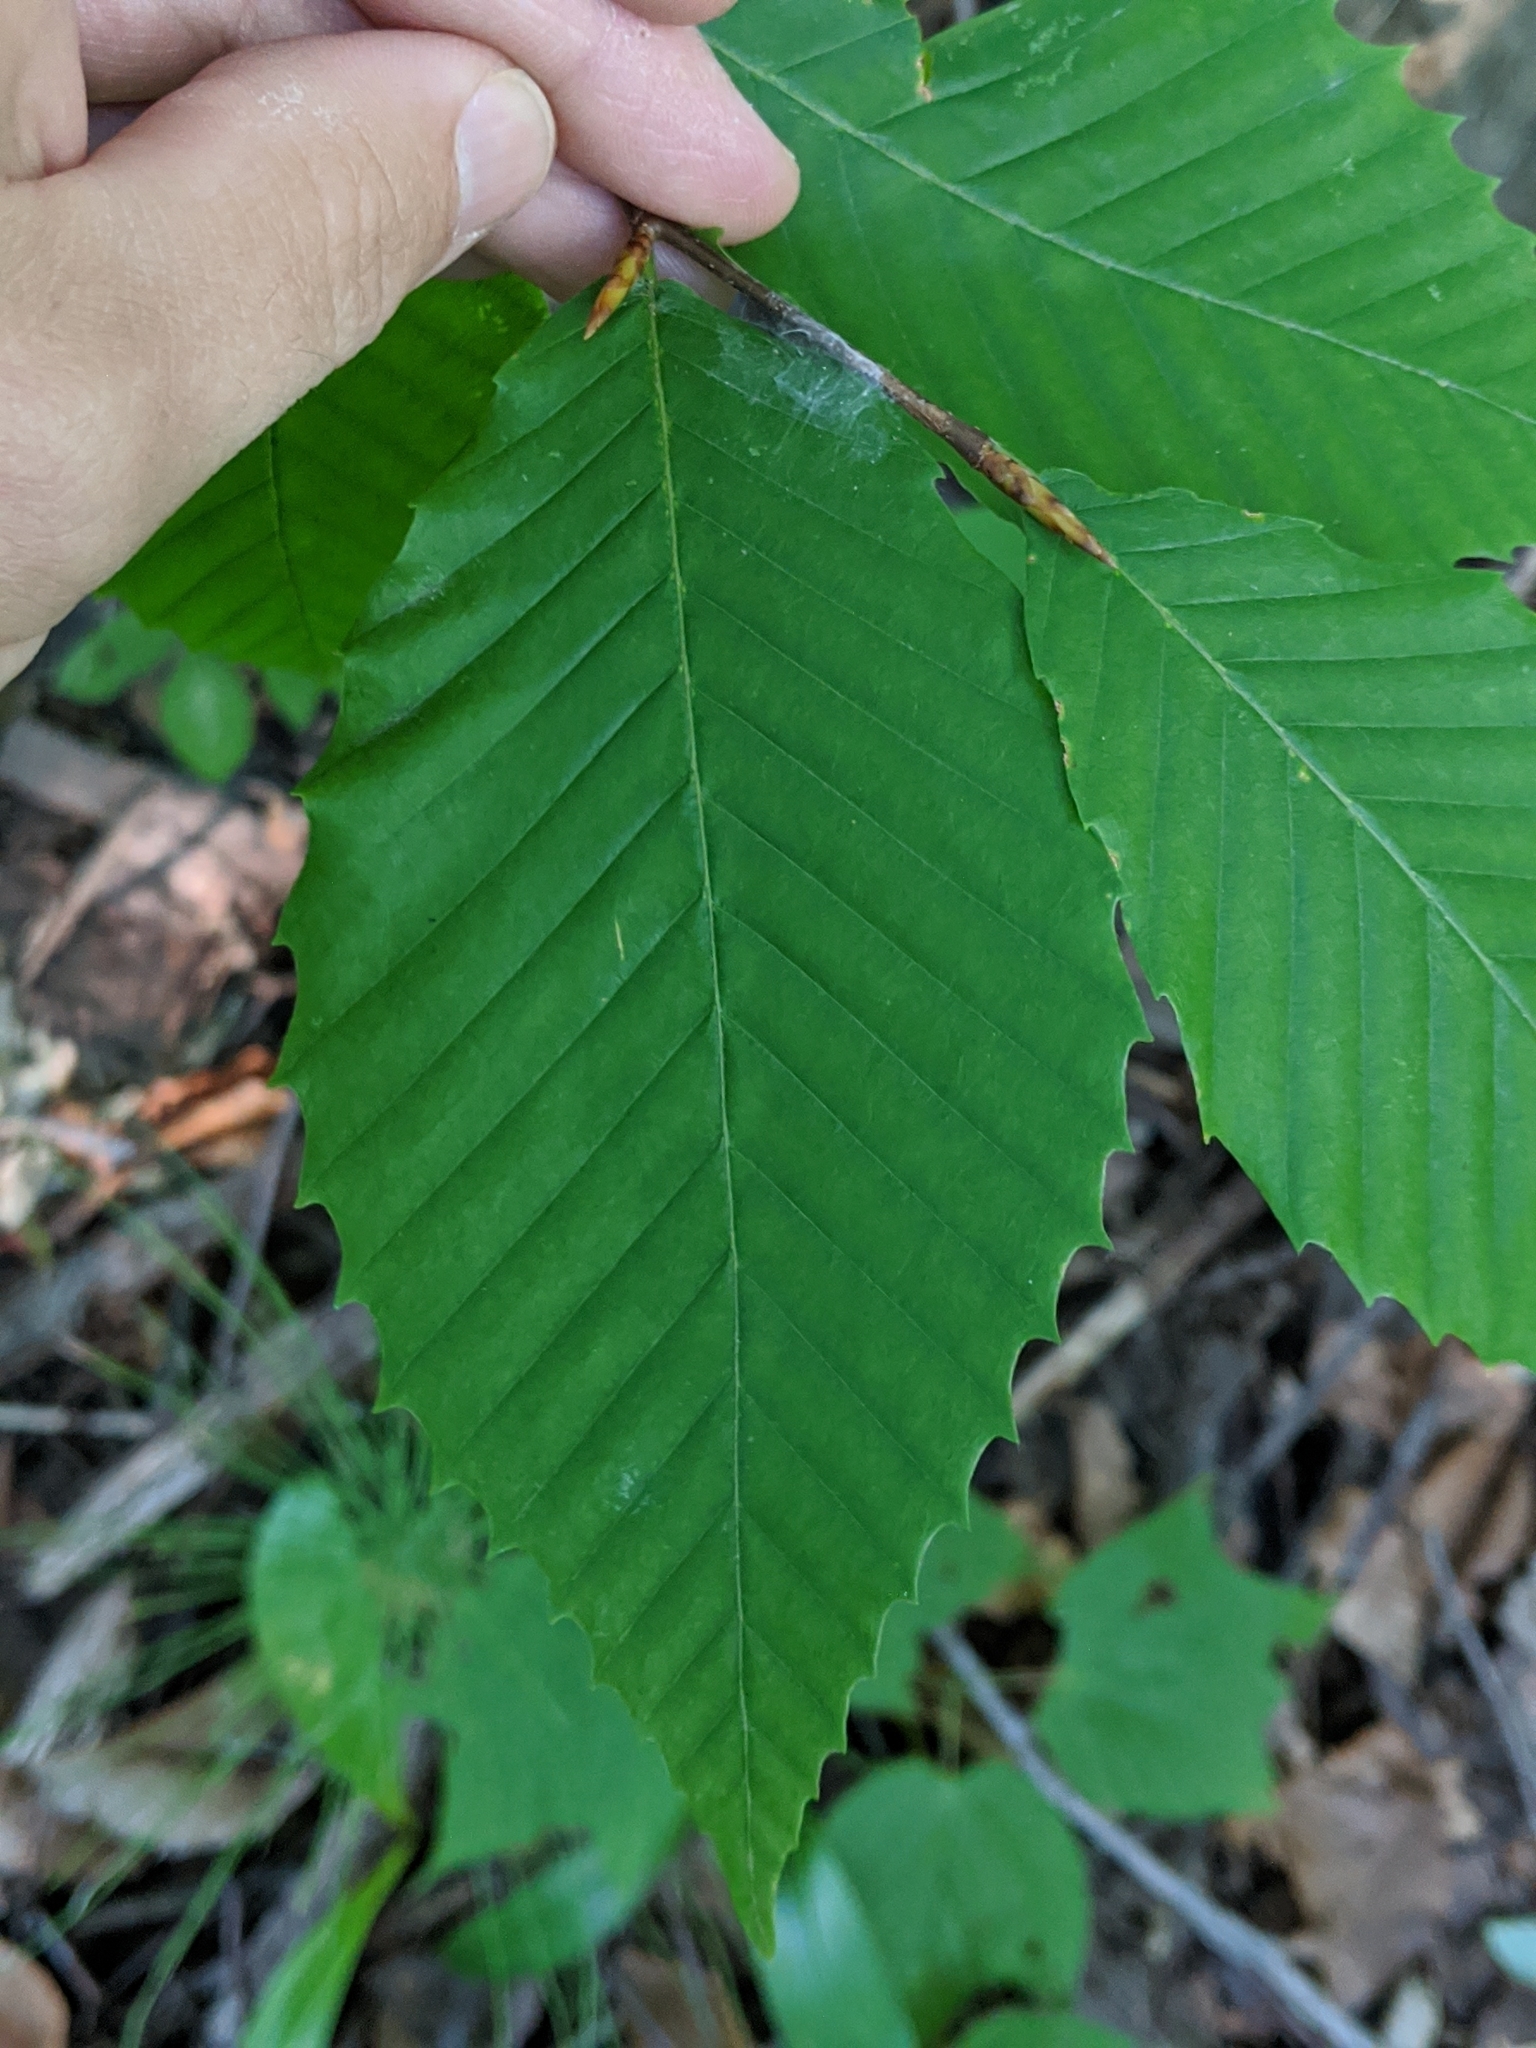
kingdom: Plantae
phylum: Tracheophyta
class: Magnoliopsida
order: Fagales
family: Fagaceae
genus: Fagus
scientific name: Fagus grandifolia
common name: American beech
